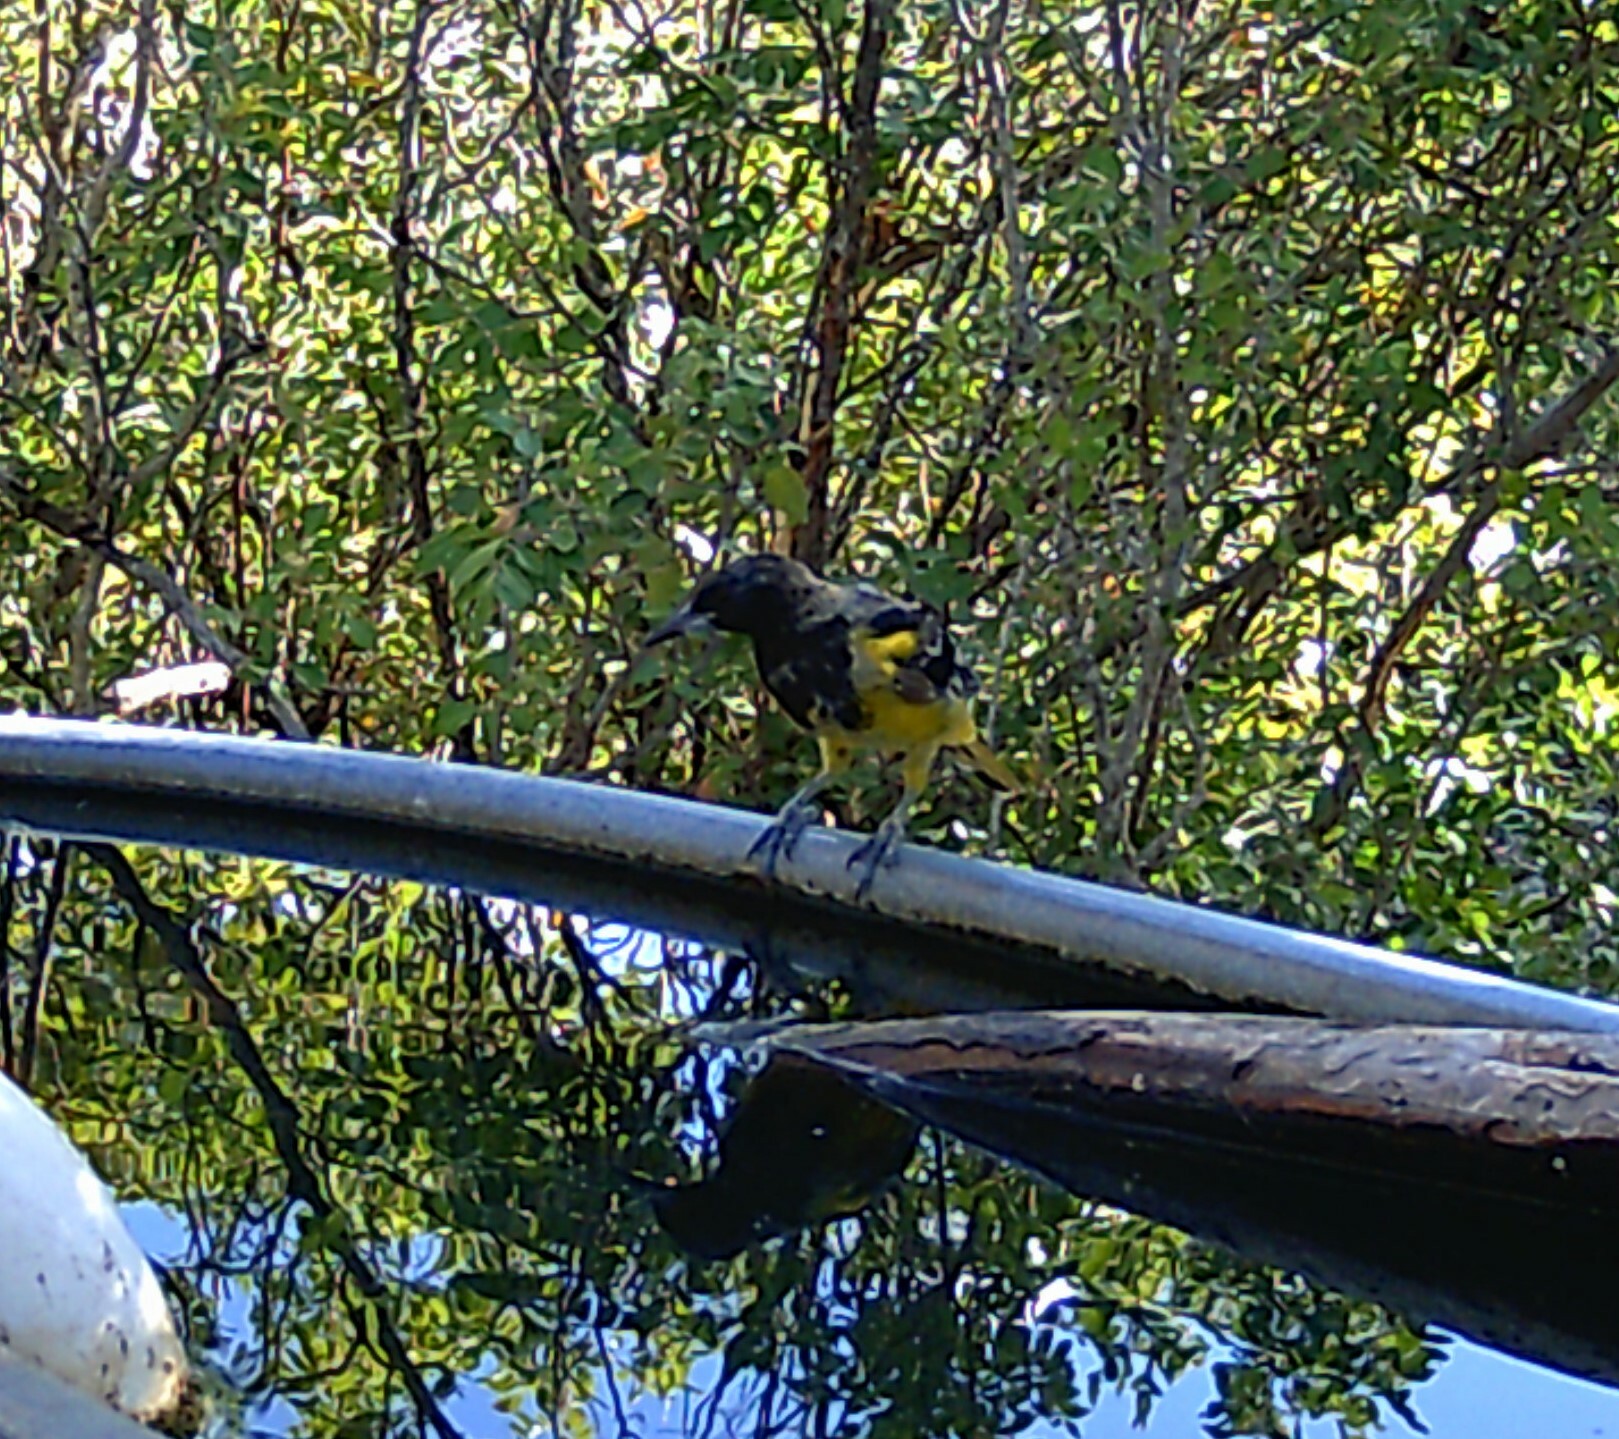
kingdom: Animalia
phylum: Chordata
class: Aves
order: Passeriformes
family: Icteridae
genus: Icterus
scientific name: Icterus parisorum
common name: Scott's oriole
